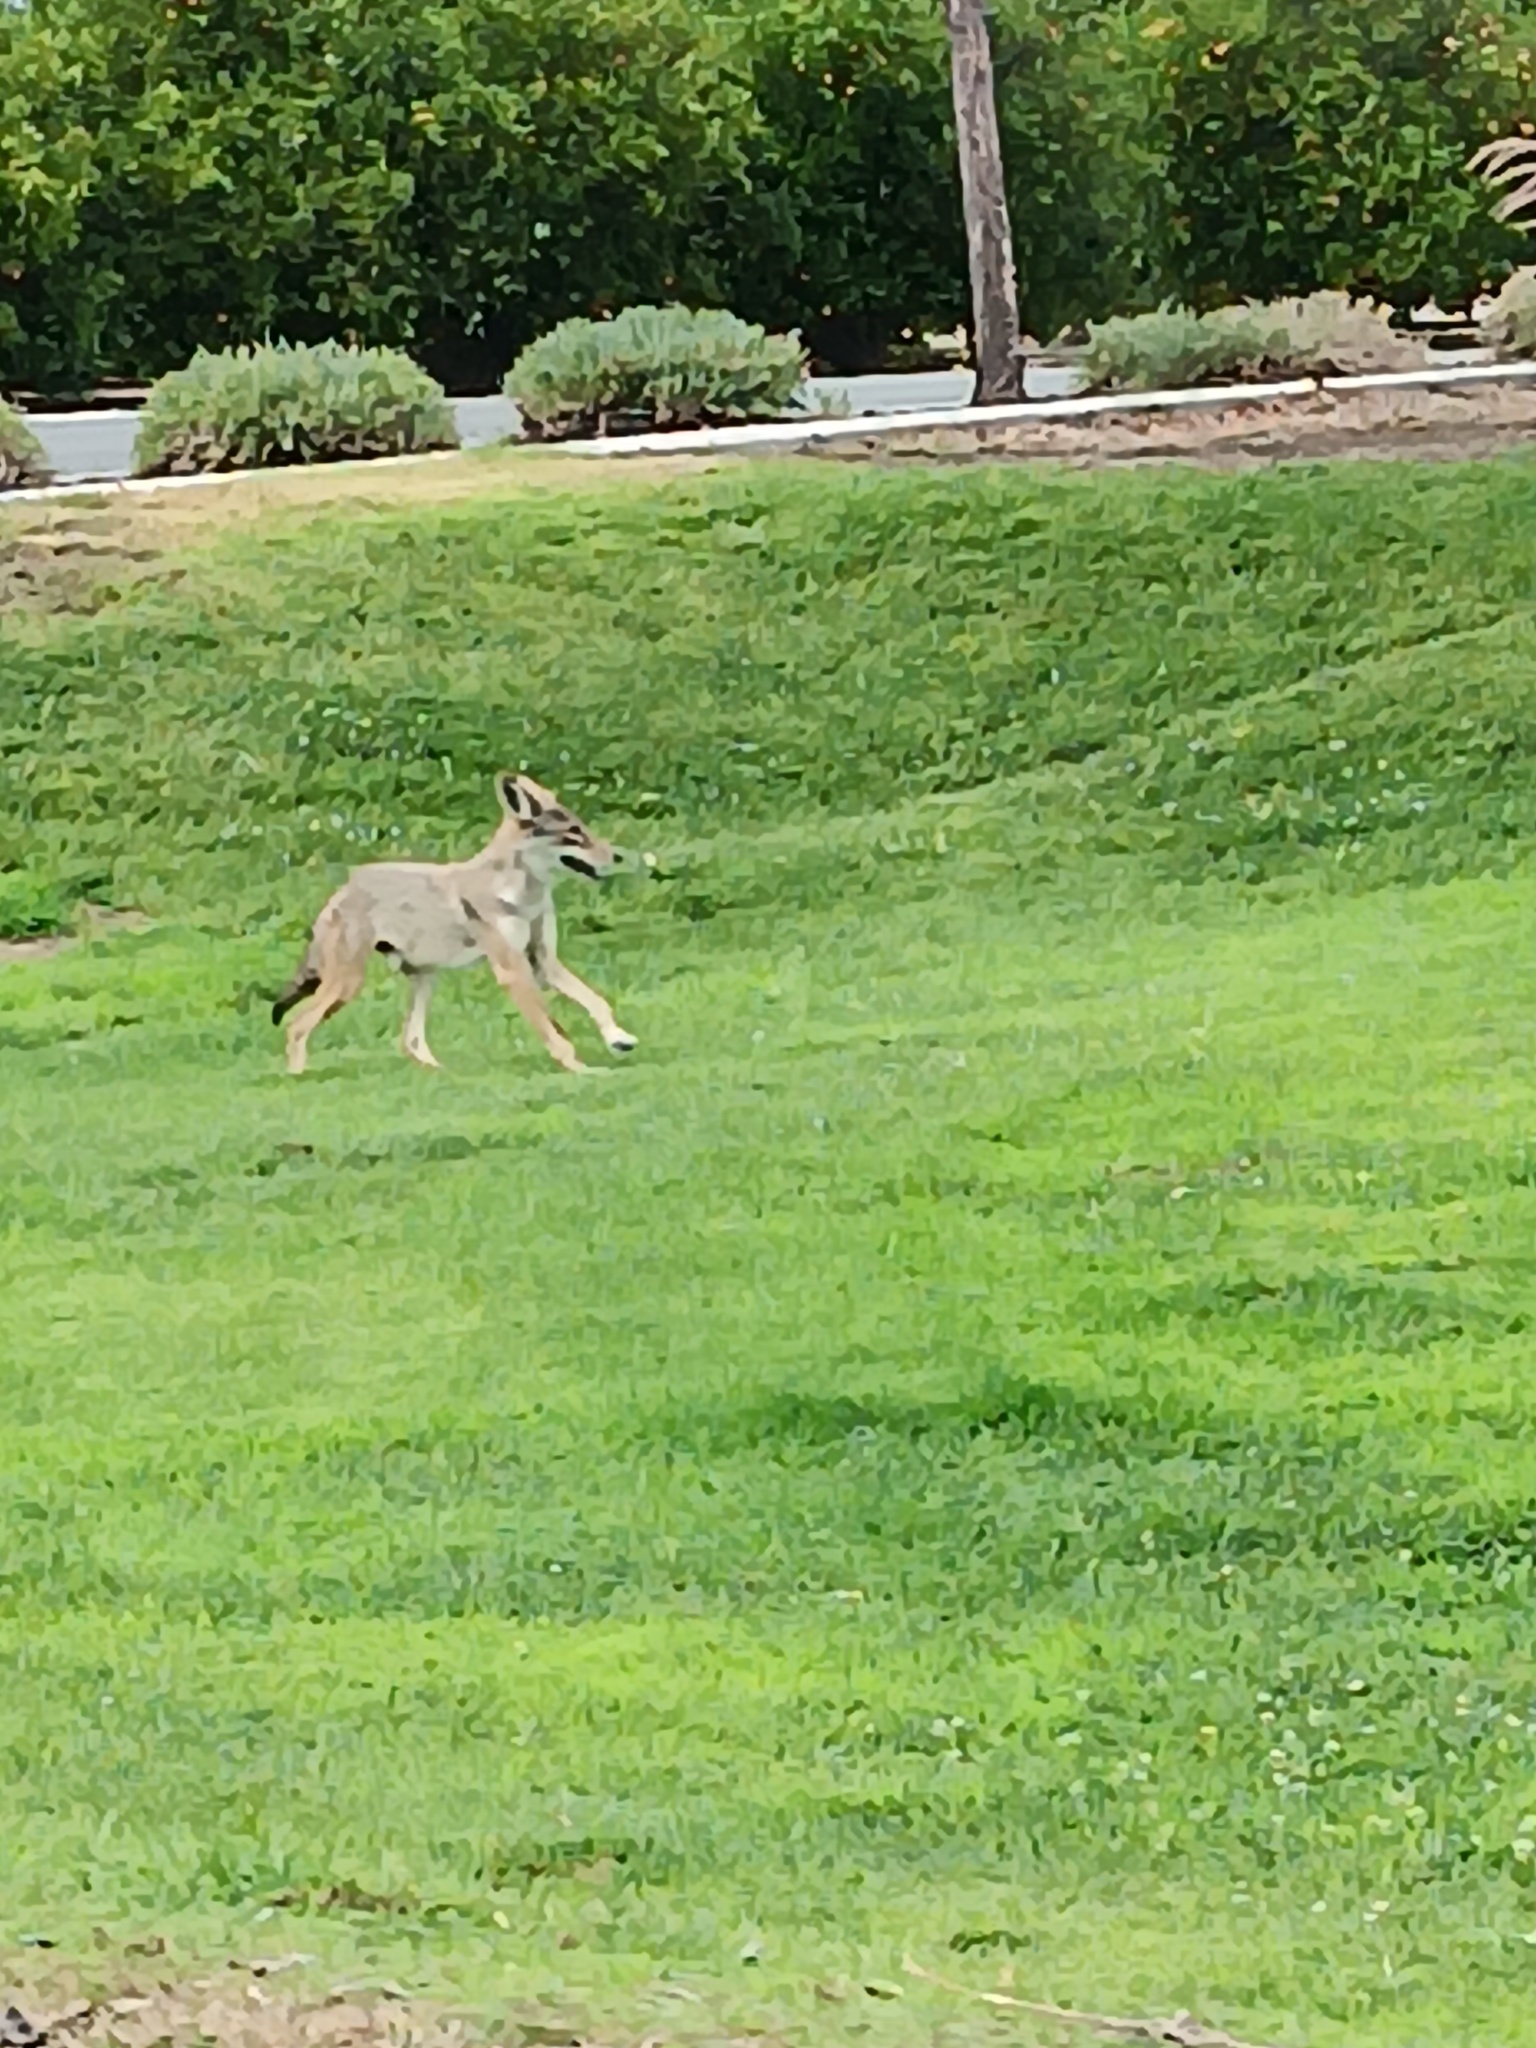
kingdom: Animalia
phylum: Chordata
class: Mammalia
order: Carnivora
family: Canidae
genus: Canis
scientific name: Canis latrans
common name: Coyote
